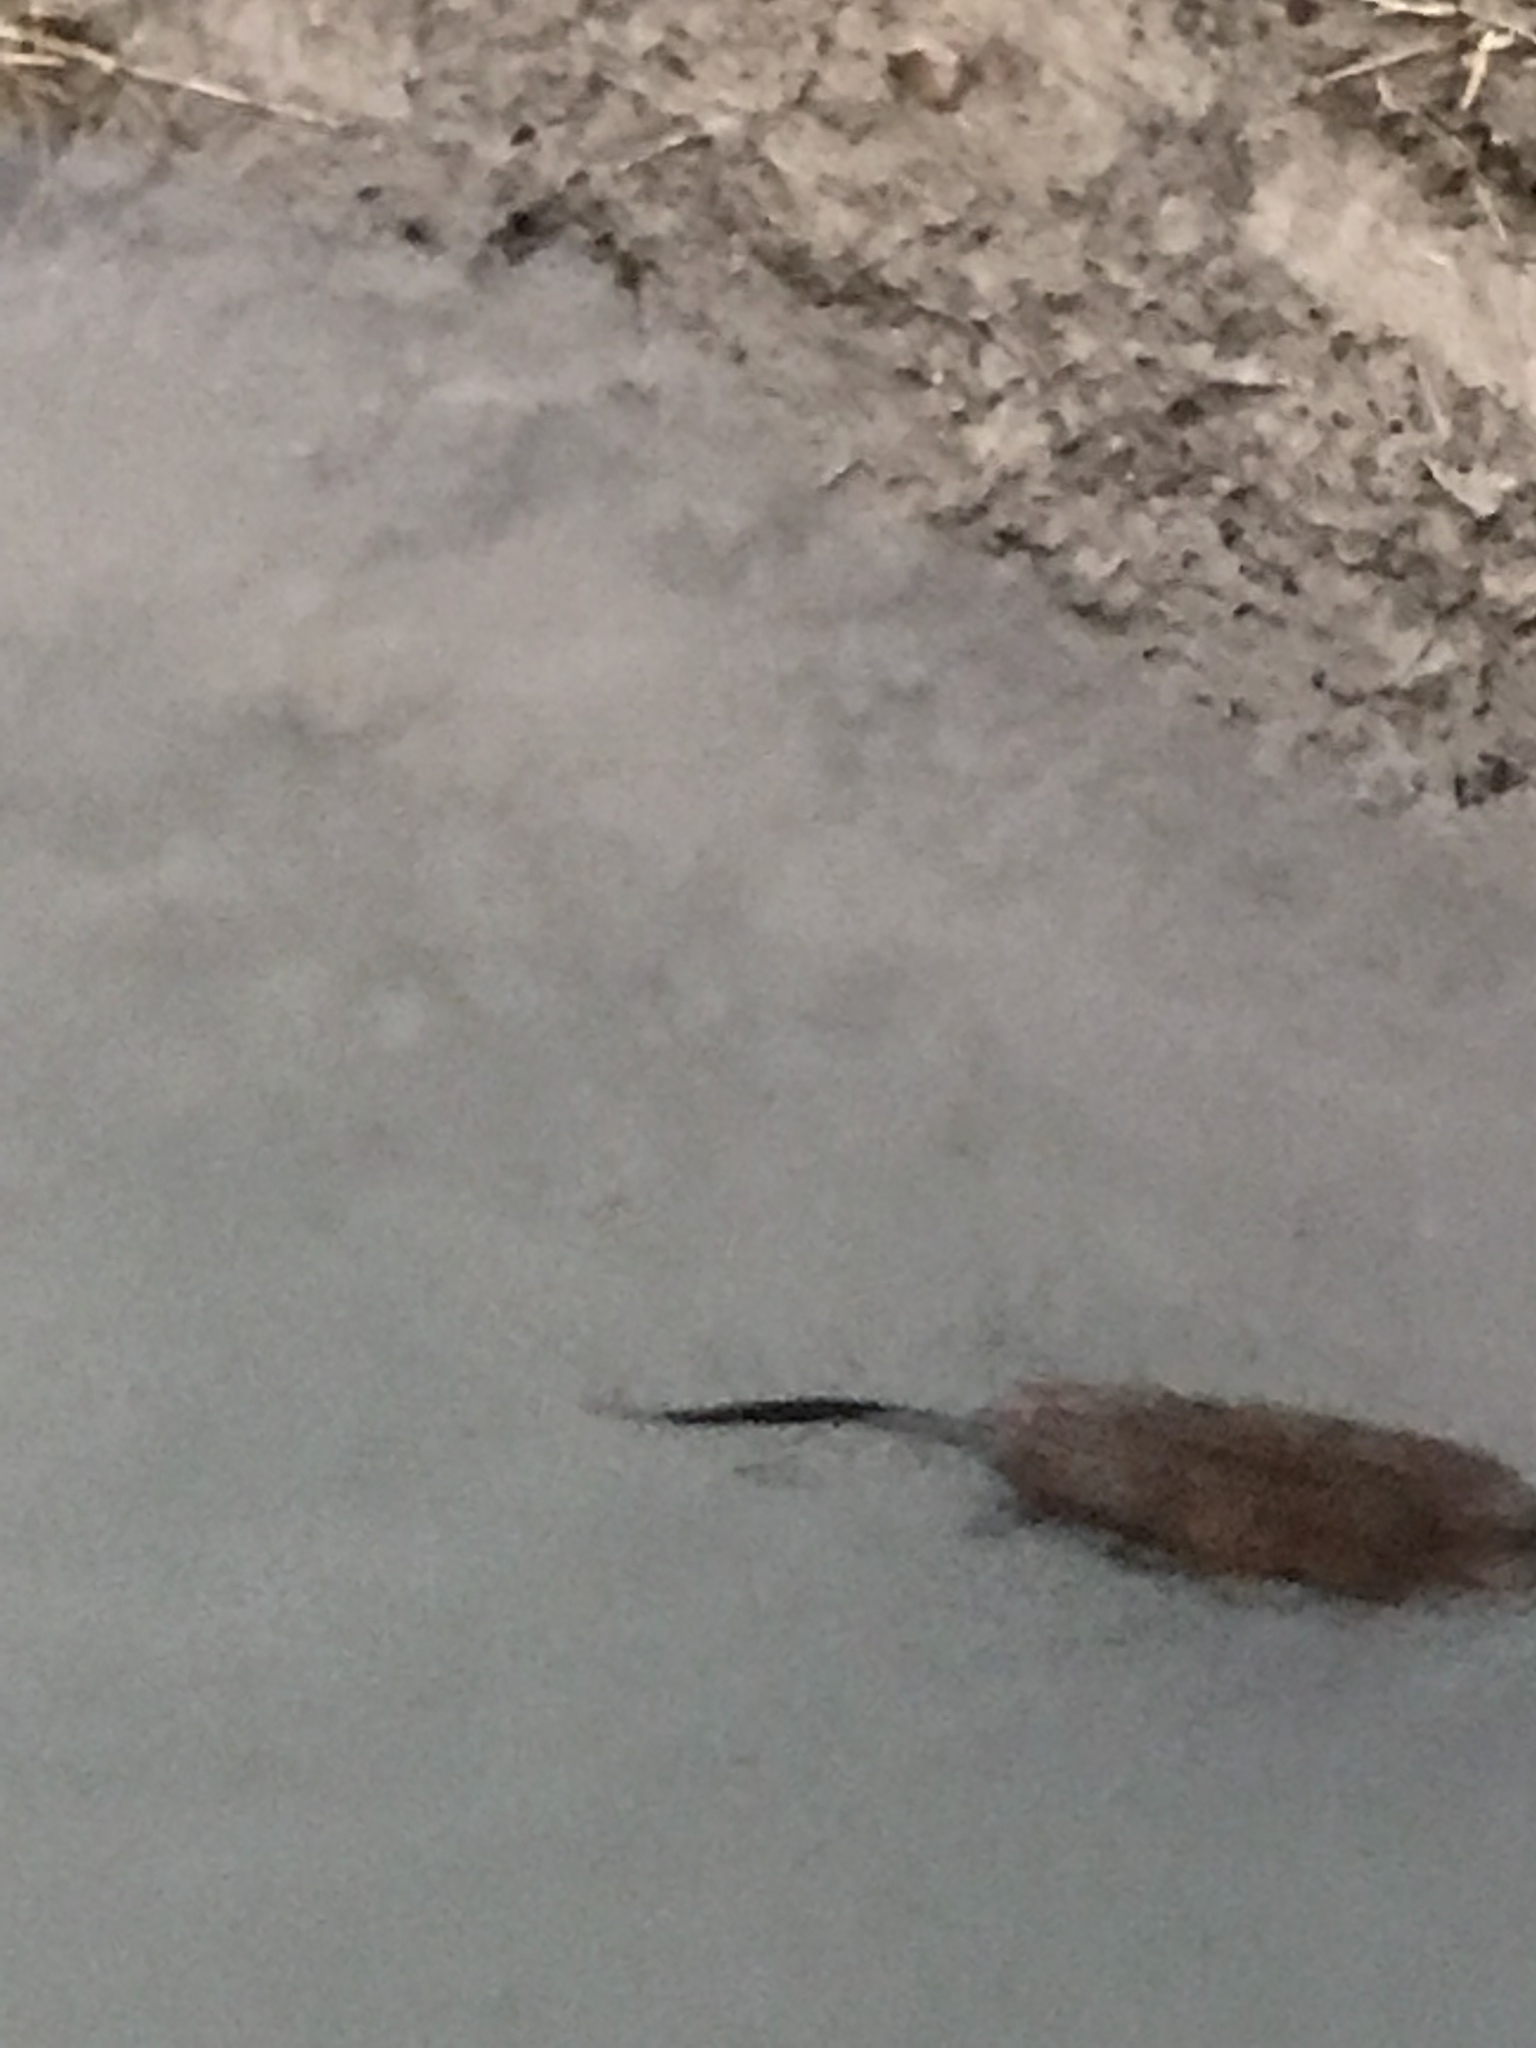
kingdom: Animalia
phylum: Chordata
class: Mammalia
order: Rodentia
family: Cricetidae
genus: Ondatra
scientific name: Ondatra zibethicus
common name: Muskrat
